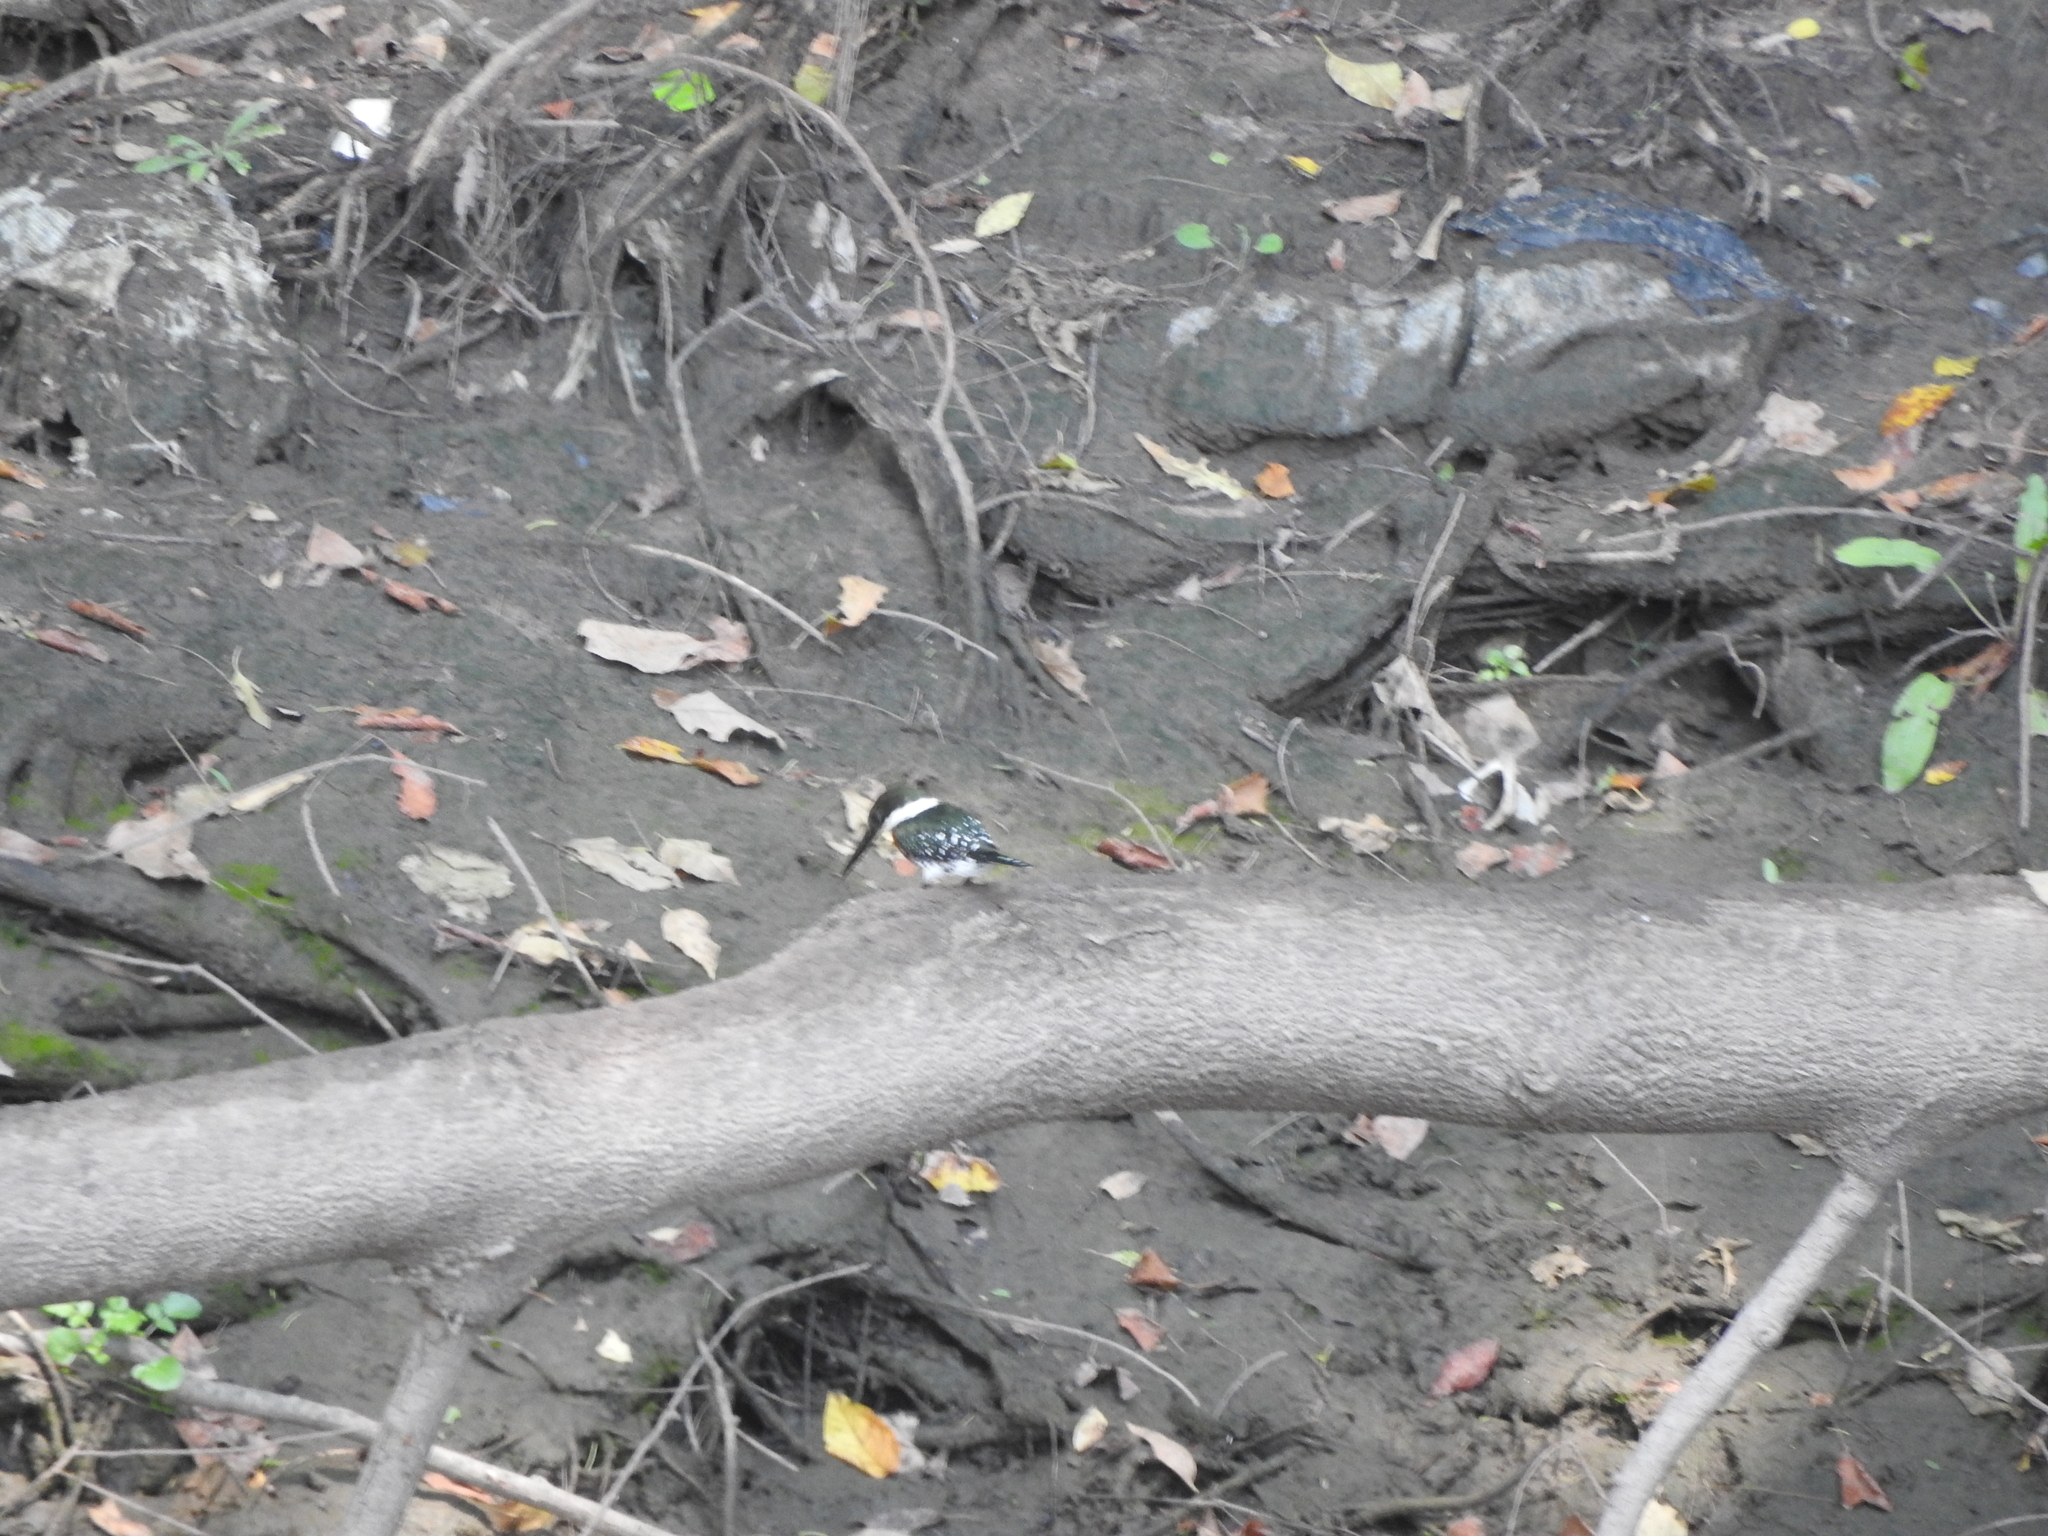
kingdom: Animalia
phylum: Chordata
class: Aves
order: Coraciiformes
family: Alcedinidae
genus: Chloroceryle
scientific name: Chloroceryle americana
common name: Green kingfisher
